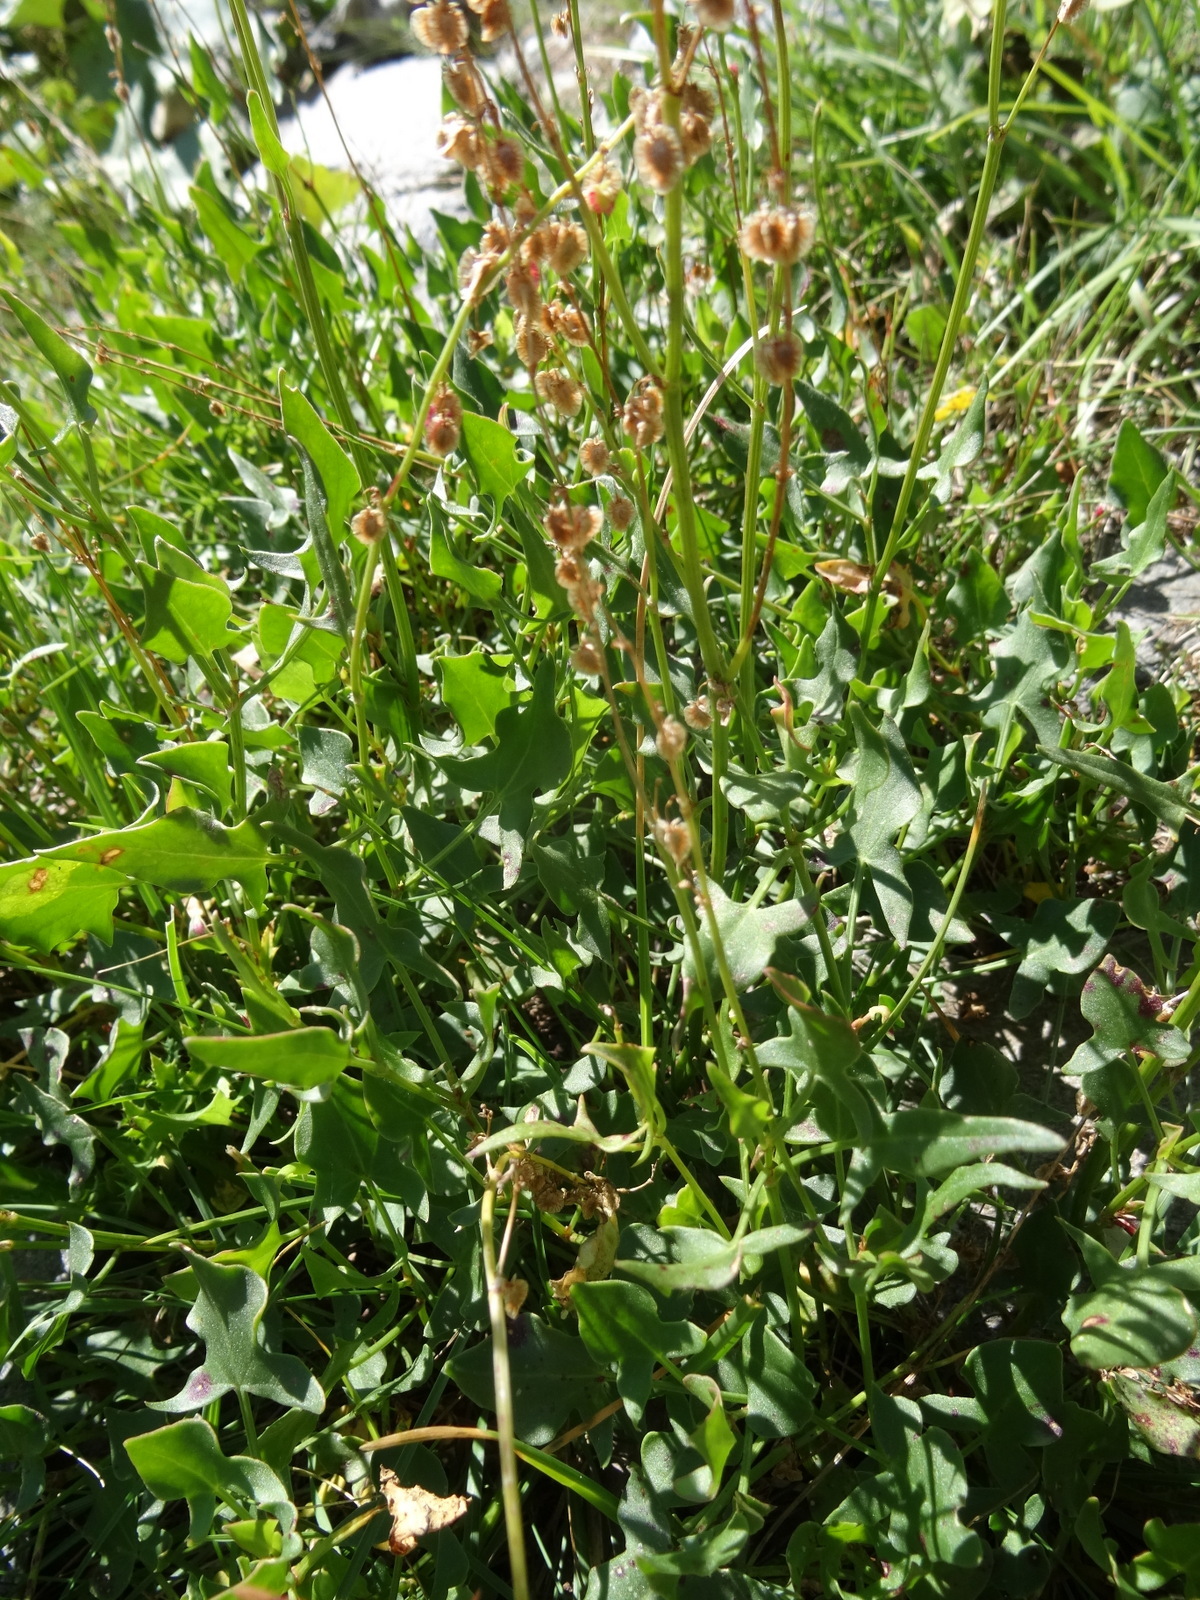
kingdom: Plantae
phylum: Tracheophyta
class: Magnoliopsida
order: Caryophyllales
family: Polygonaceae
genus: Rumex
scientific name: Rumex acetosella
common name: Common sheep sorrel
